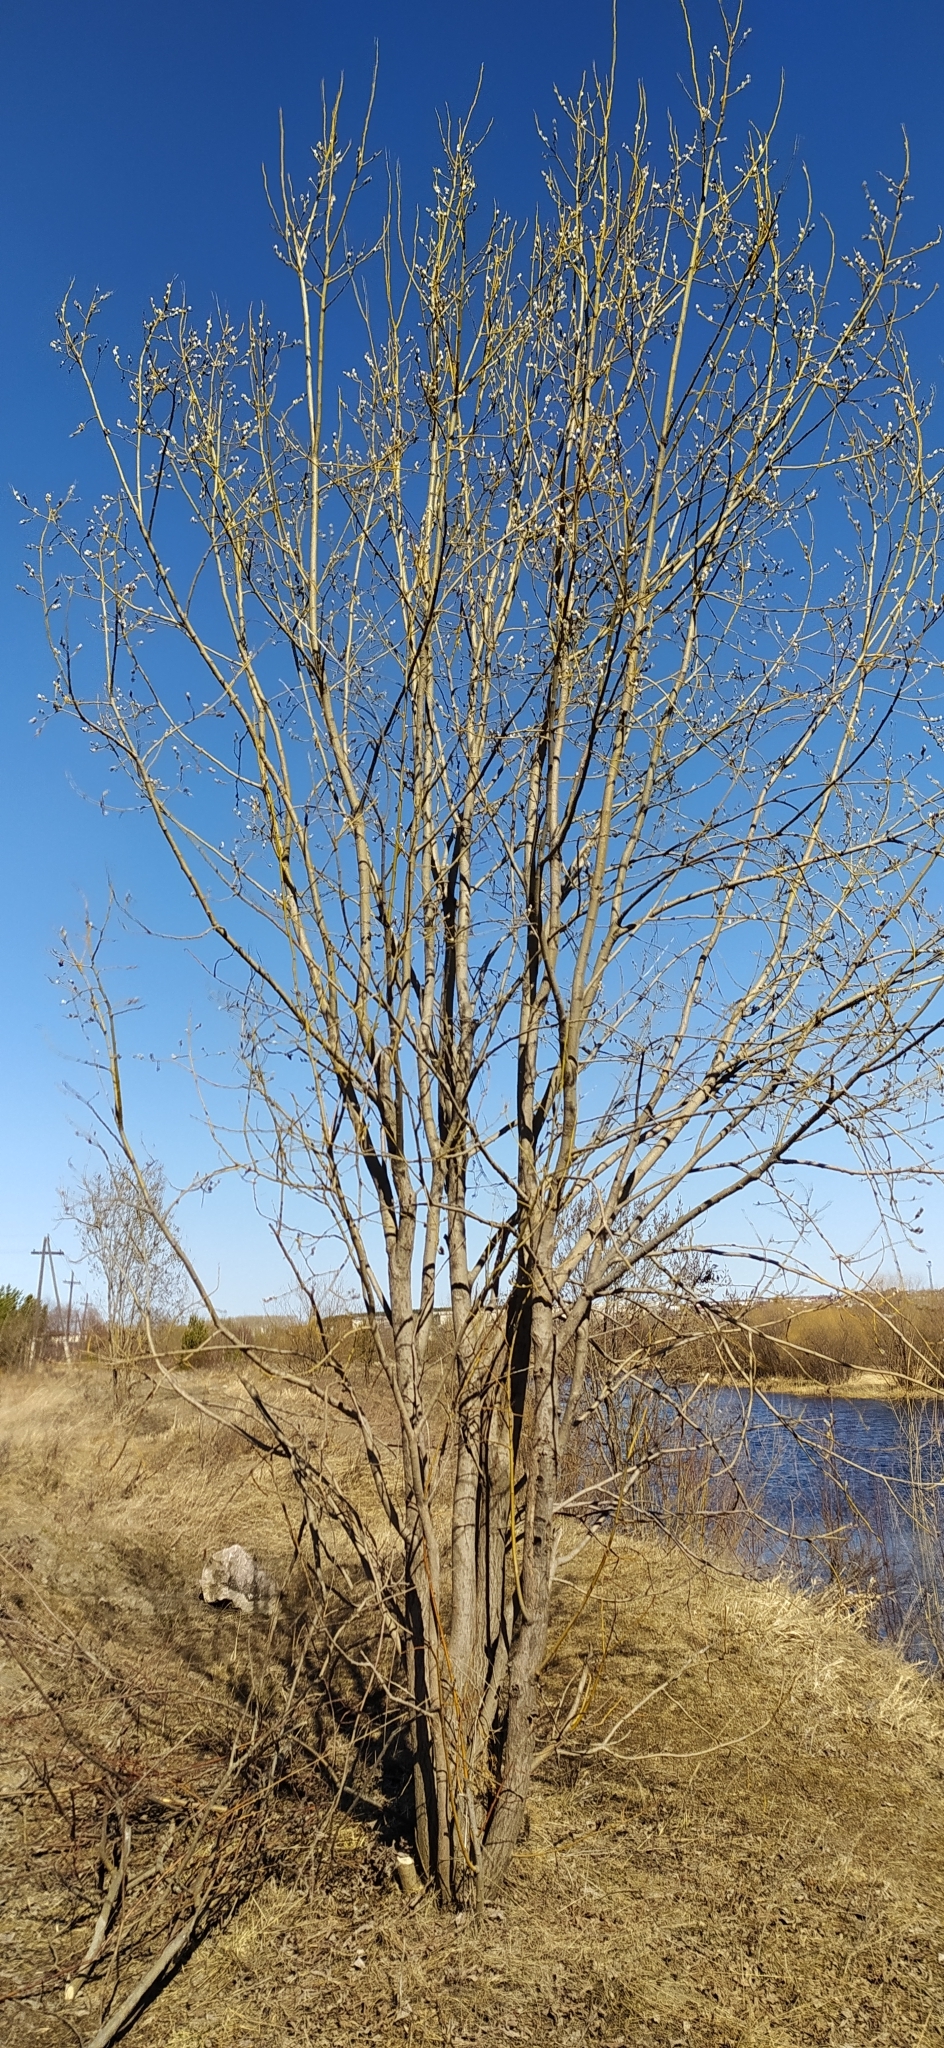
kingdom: Plantae
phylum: Tracheophyta
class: Magnoliopsida
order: Malpighiales
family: Salicaceae
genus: Salix
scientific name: Salix caprea
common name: Goat willow
